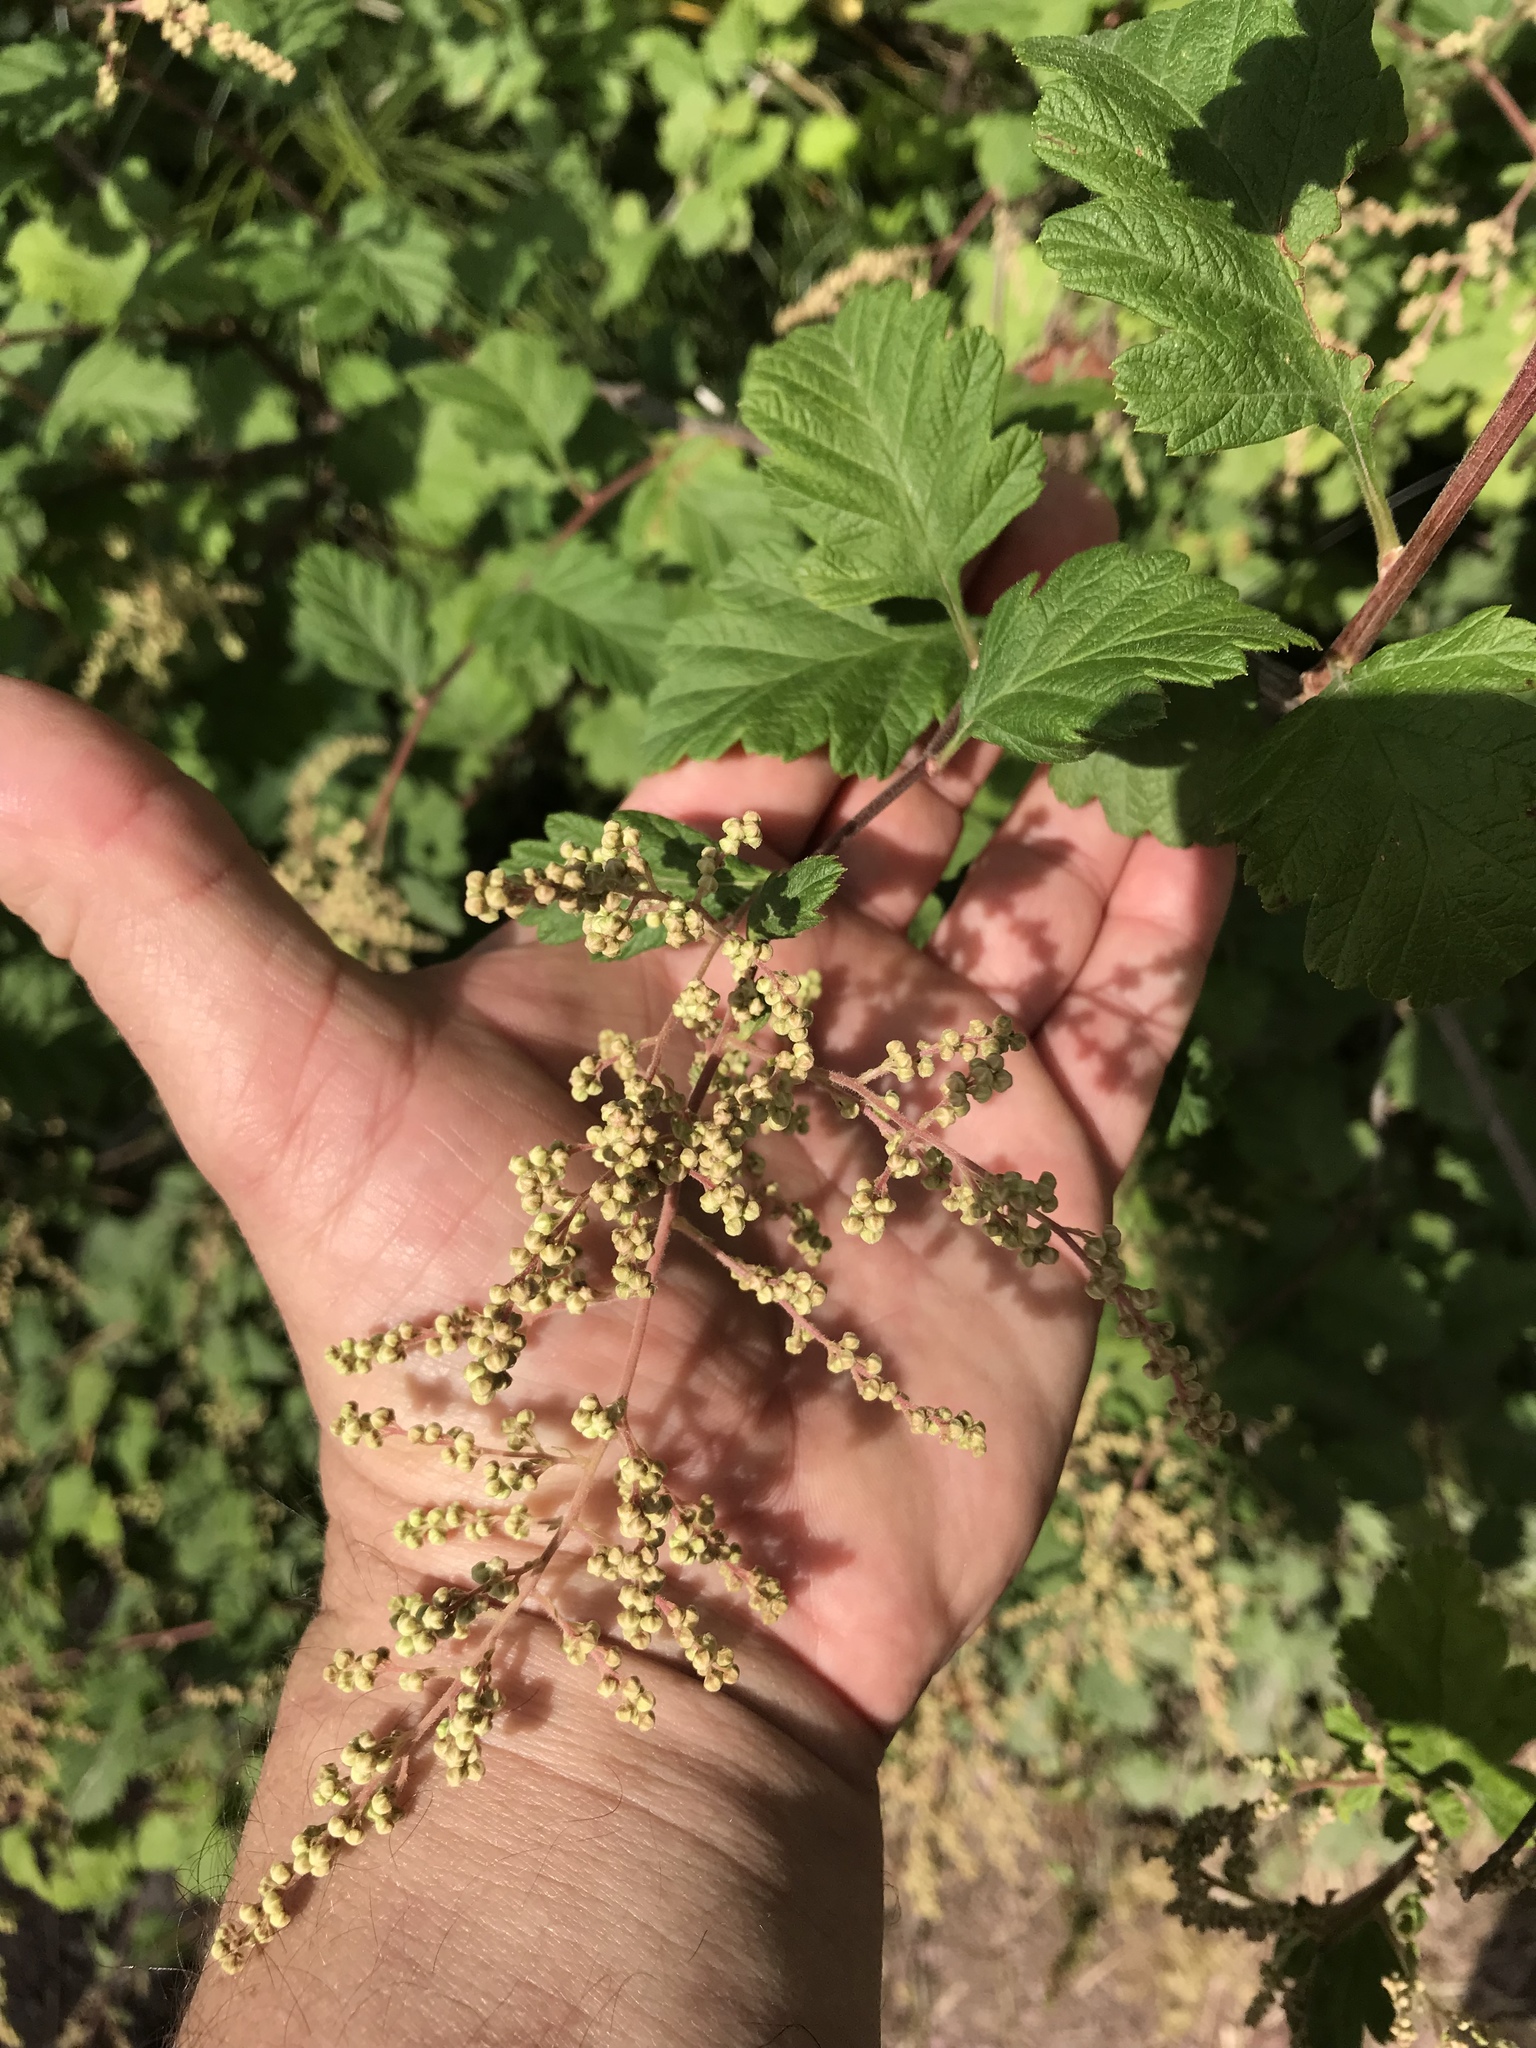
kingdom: Plantae
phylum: Tracheophyta
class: Magnoliopsida
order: Rosales
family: Rosaceae
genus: Holodiscus
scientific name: Holodiscus discolor
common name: Oceanspray
